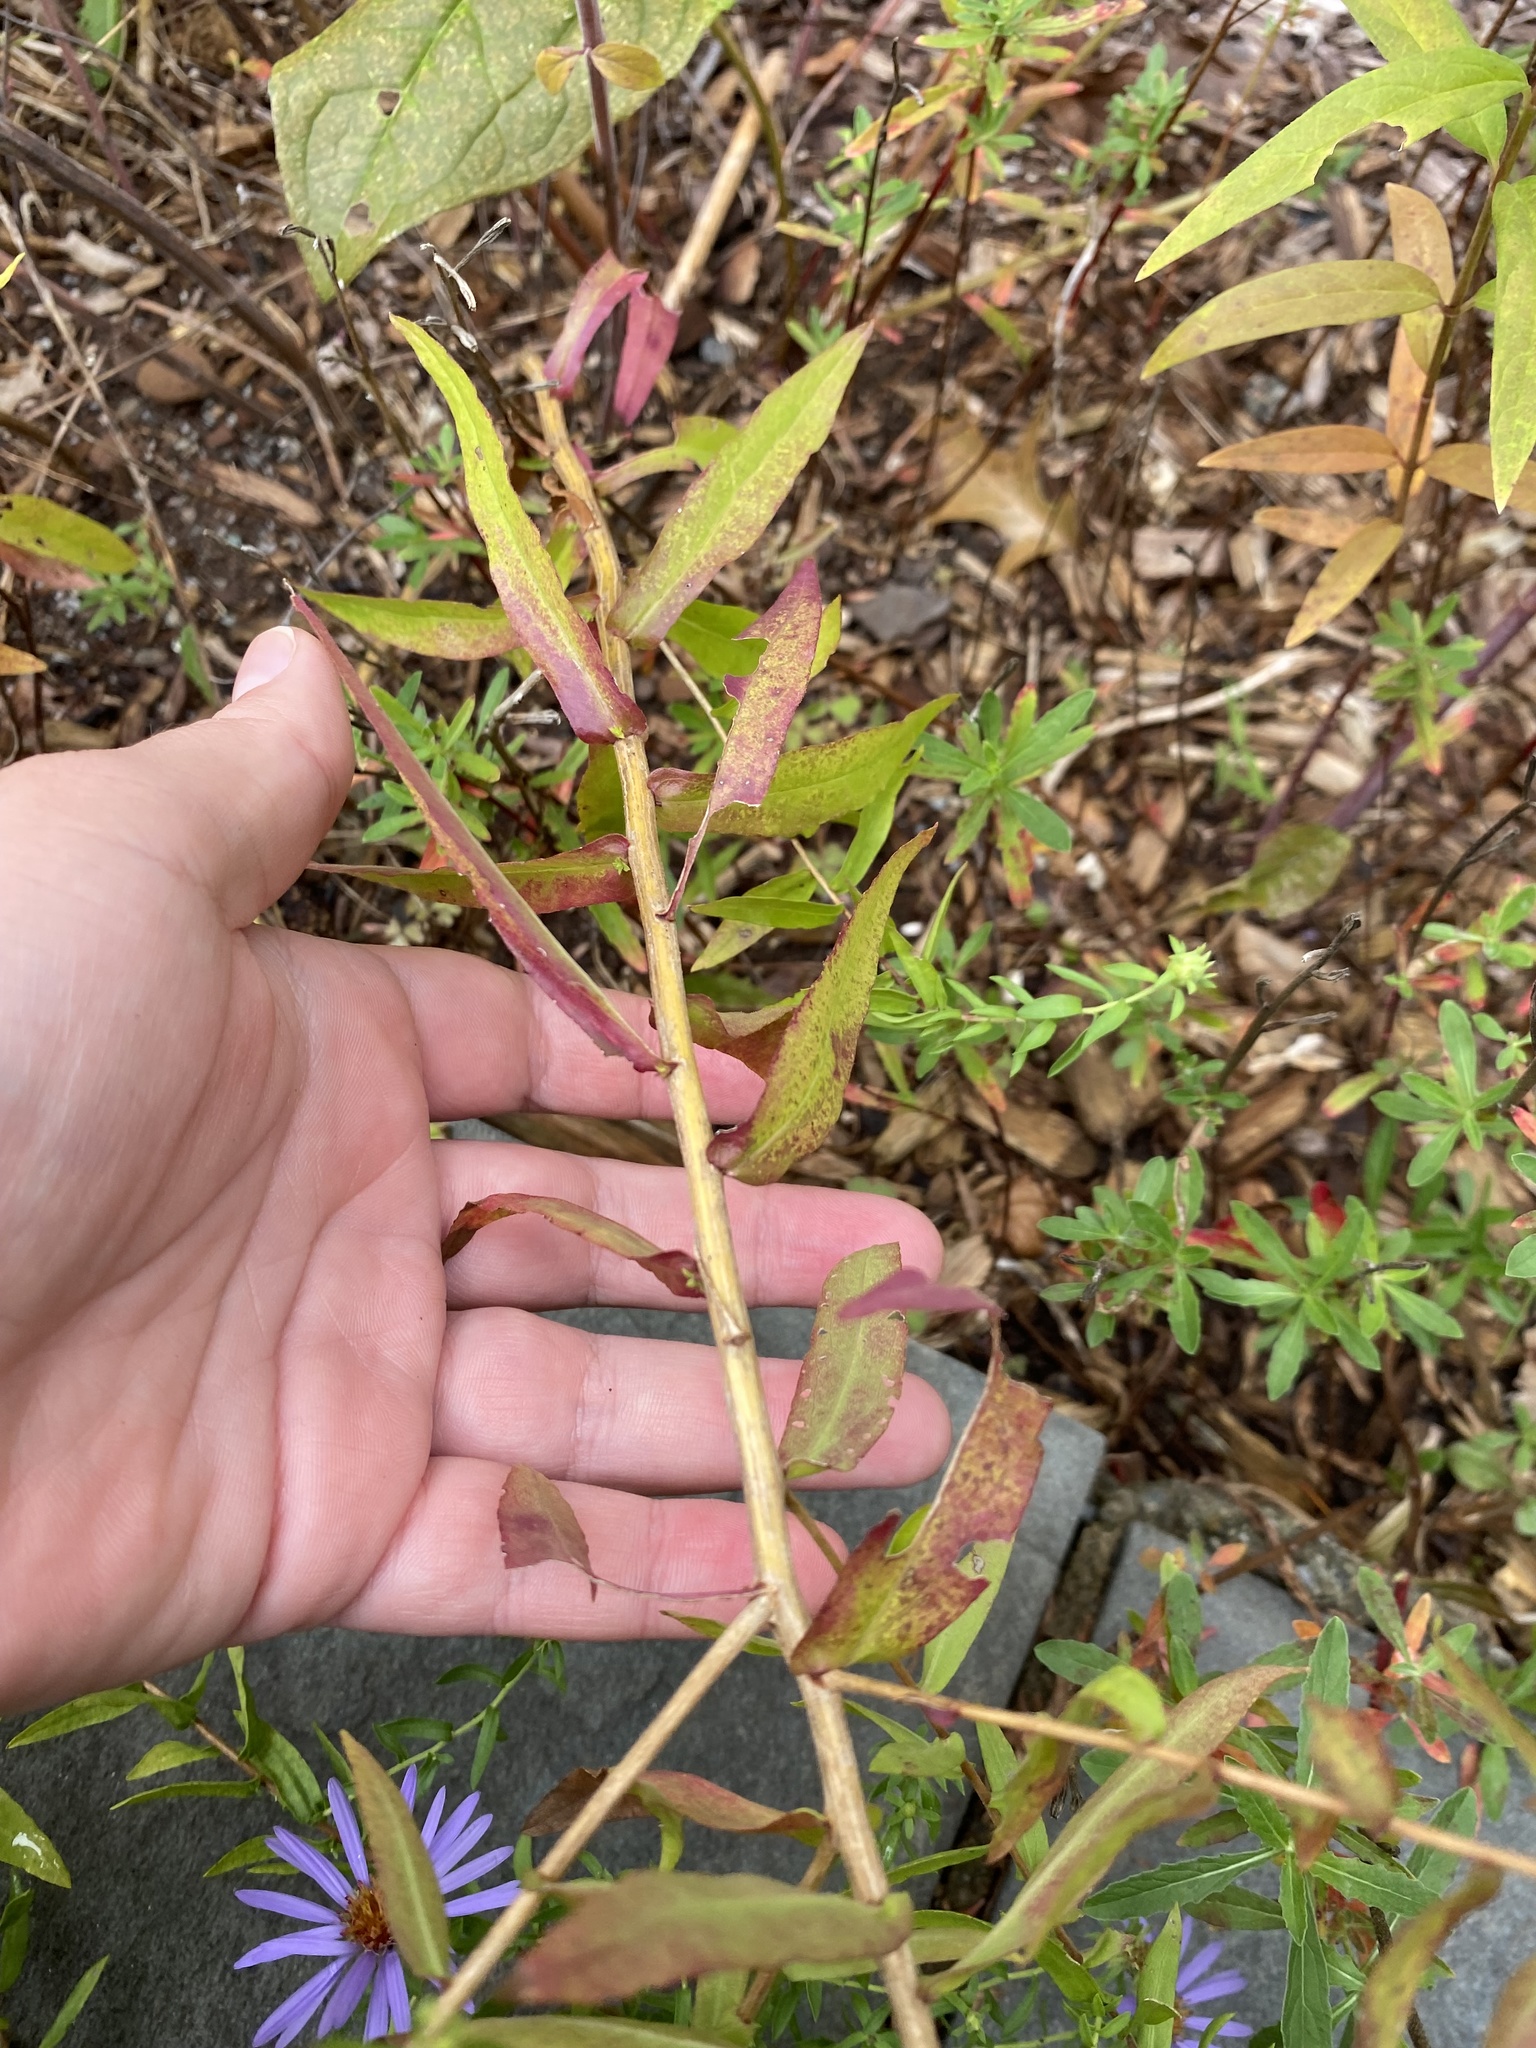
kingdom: Plantae
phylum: Tracheophyta
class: Magnoliopsida
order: Asterales
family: Asteraceae
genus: Symphyotrichum
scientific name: Symphyotrichum oblongifolium
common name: Aromatic aster
